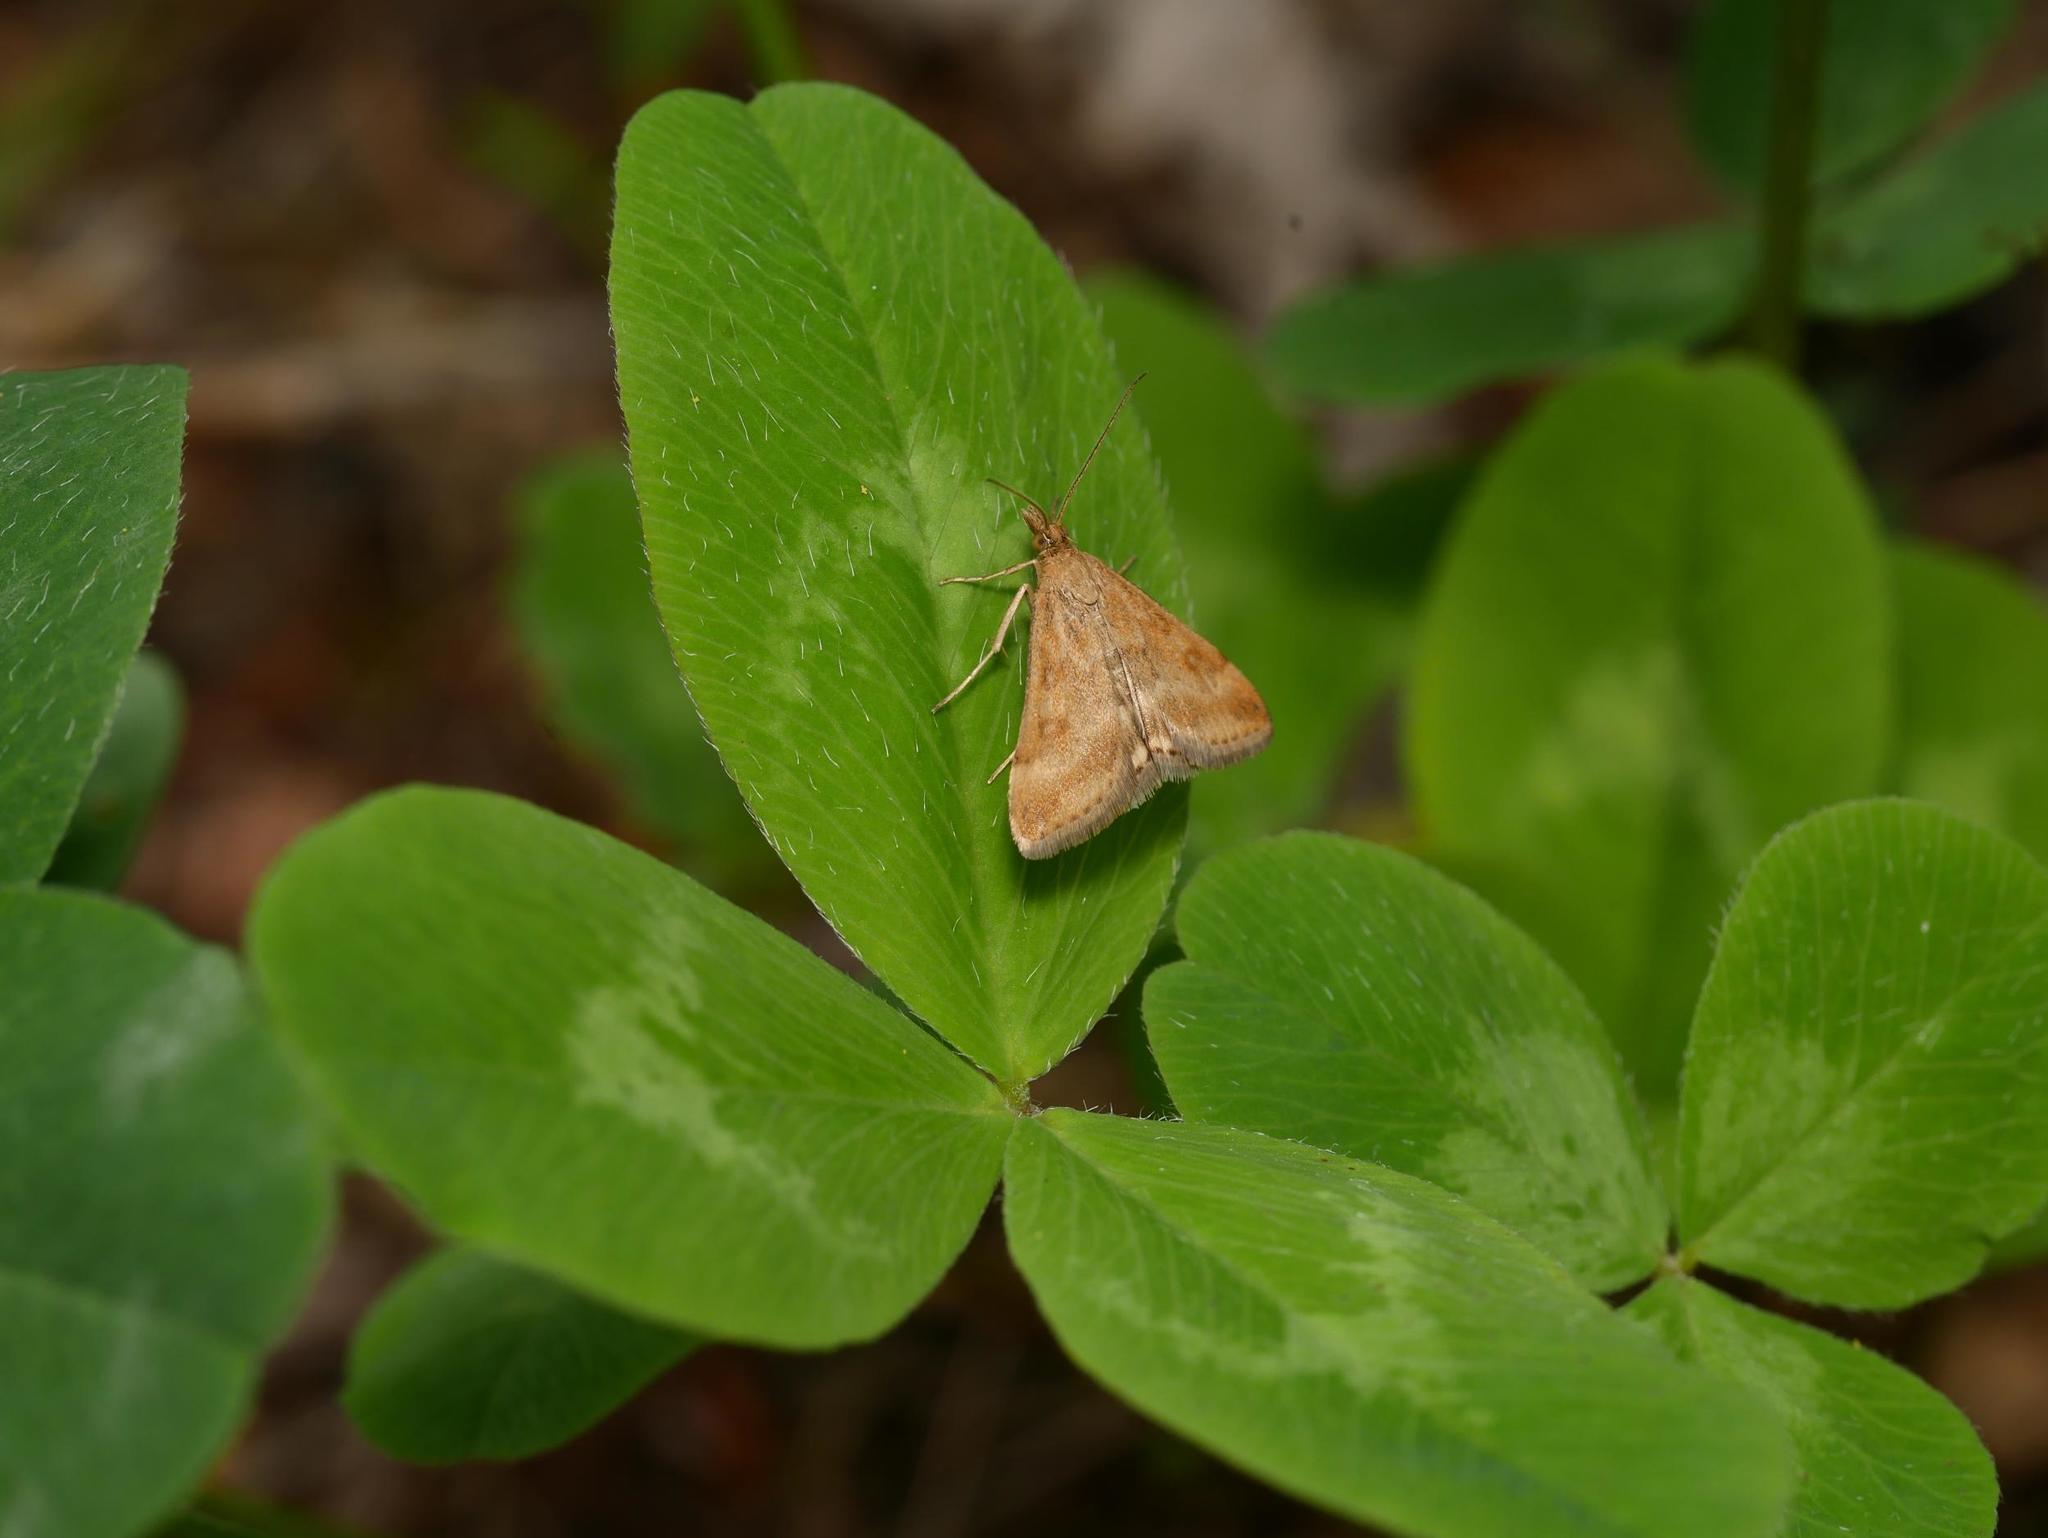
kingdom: Animalia
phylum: Arthropoda
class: Insecta
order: Lepidoptera
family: Crambidae
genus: Pyrausta
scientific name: Pyrausta despicata
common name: Straw-barred pearl
